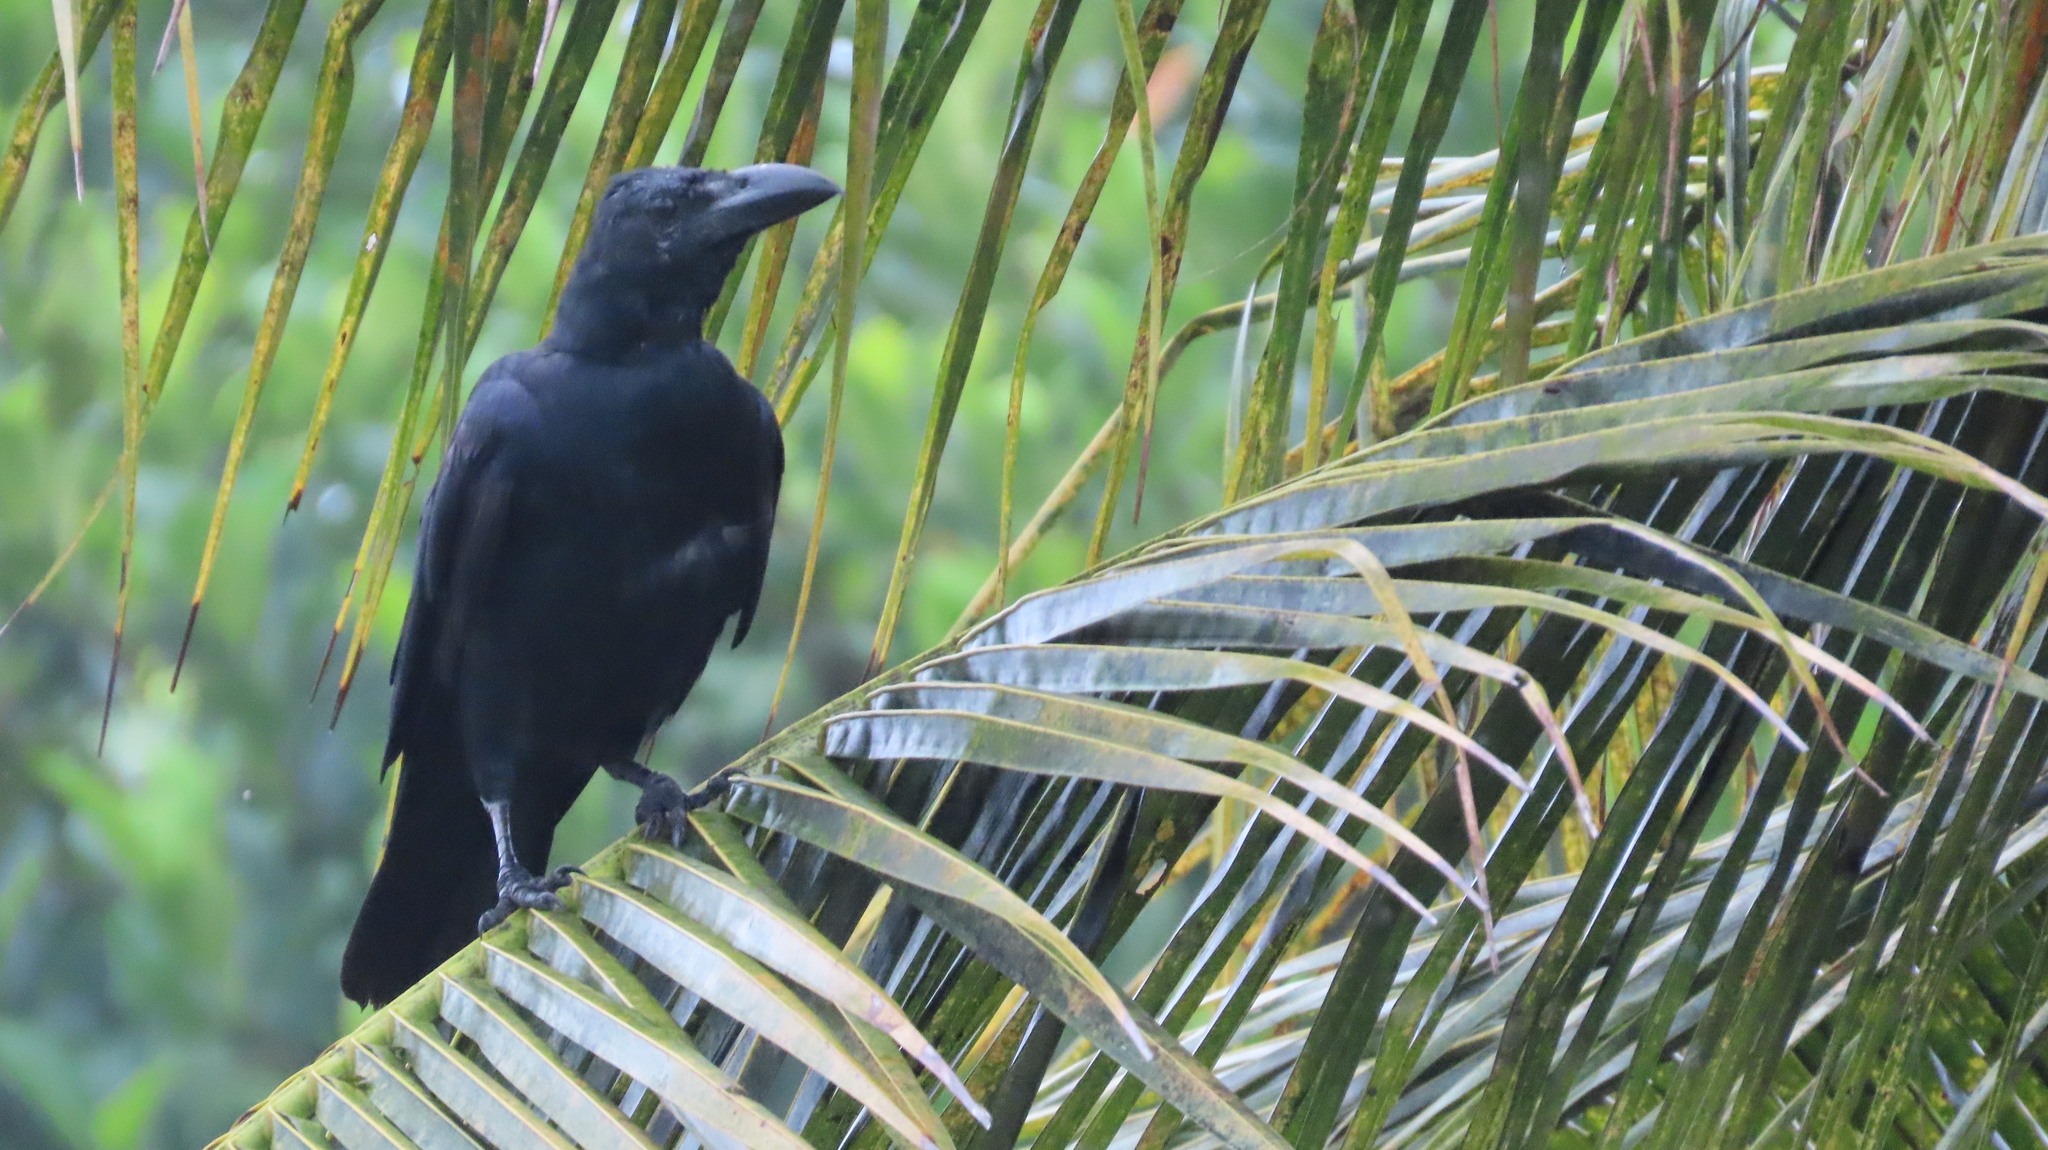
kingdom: Animalia
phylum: Chordata
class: Aves
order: Passeriformes
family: Corvidae
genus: Corvus
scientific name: Corvus macrorhynchos
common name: Large-billed crow
